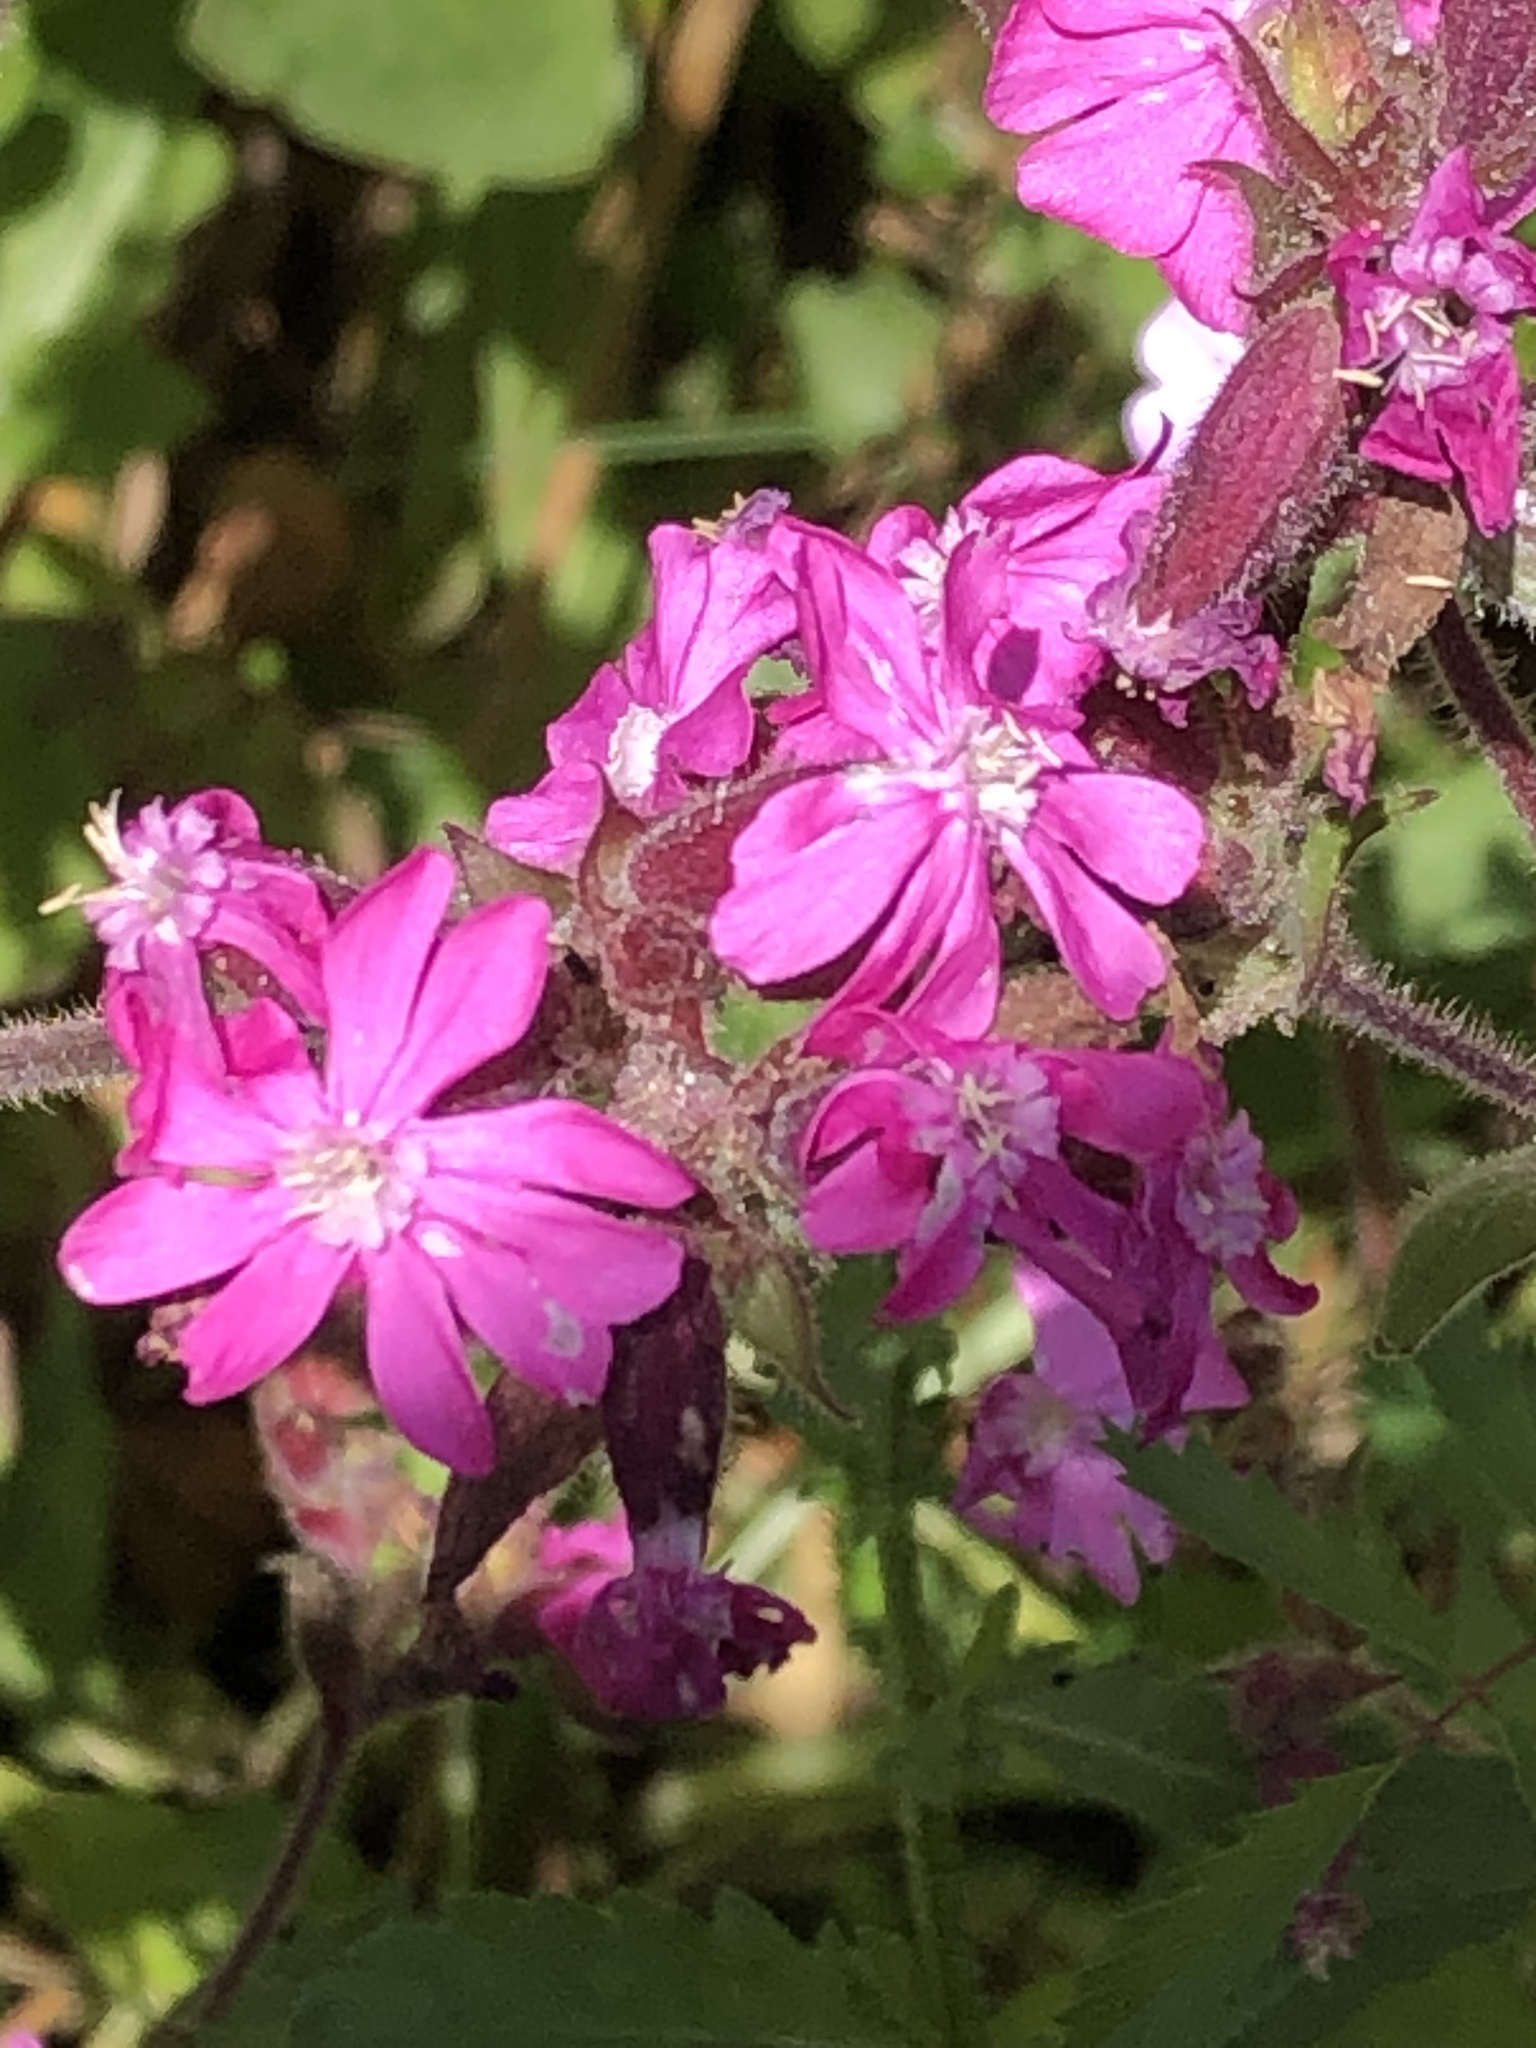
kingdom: Plantae
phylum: Tracheophyta
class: Magnoliopsida
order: Caryophyllales
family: Caryophyllaceae
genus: Silene
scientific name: Silene dioica
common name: Red campion
